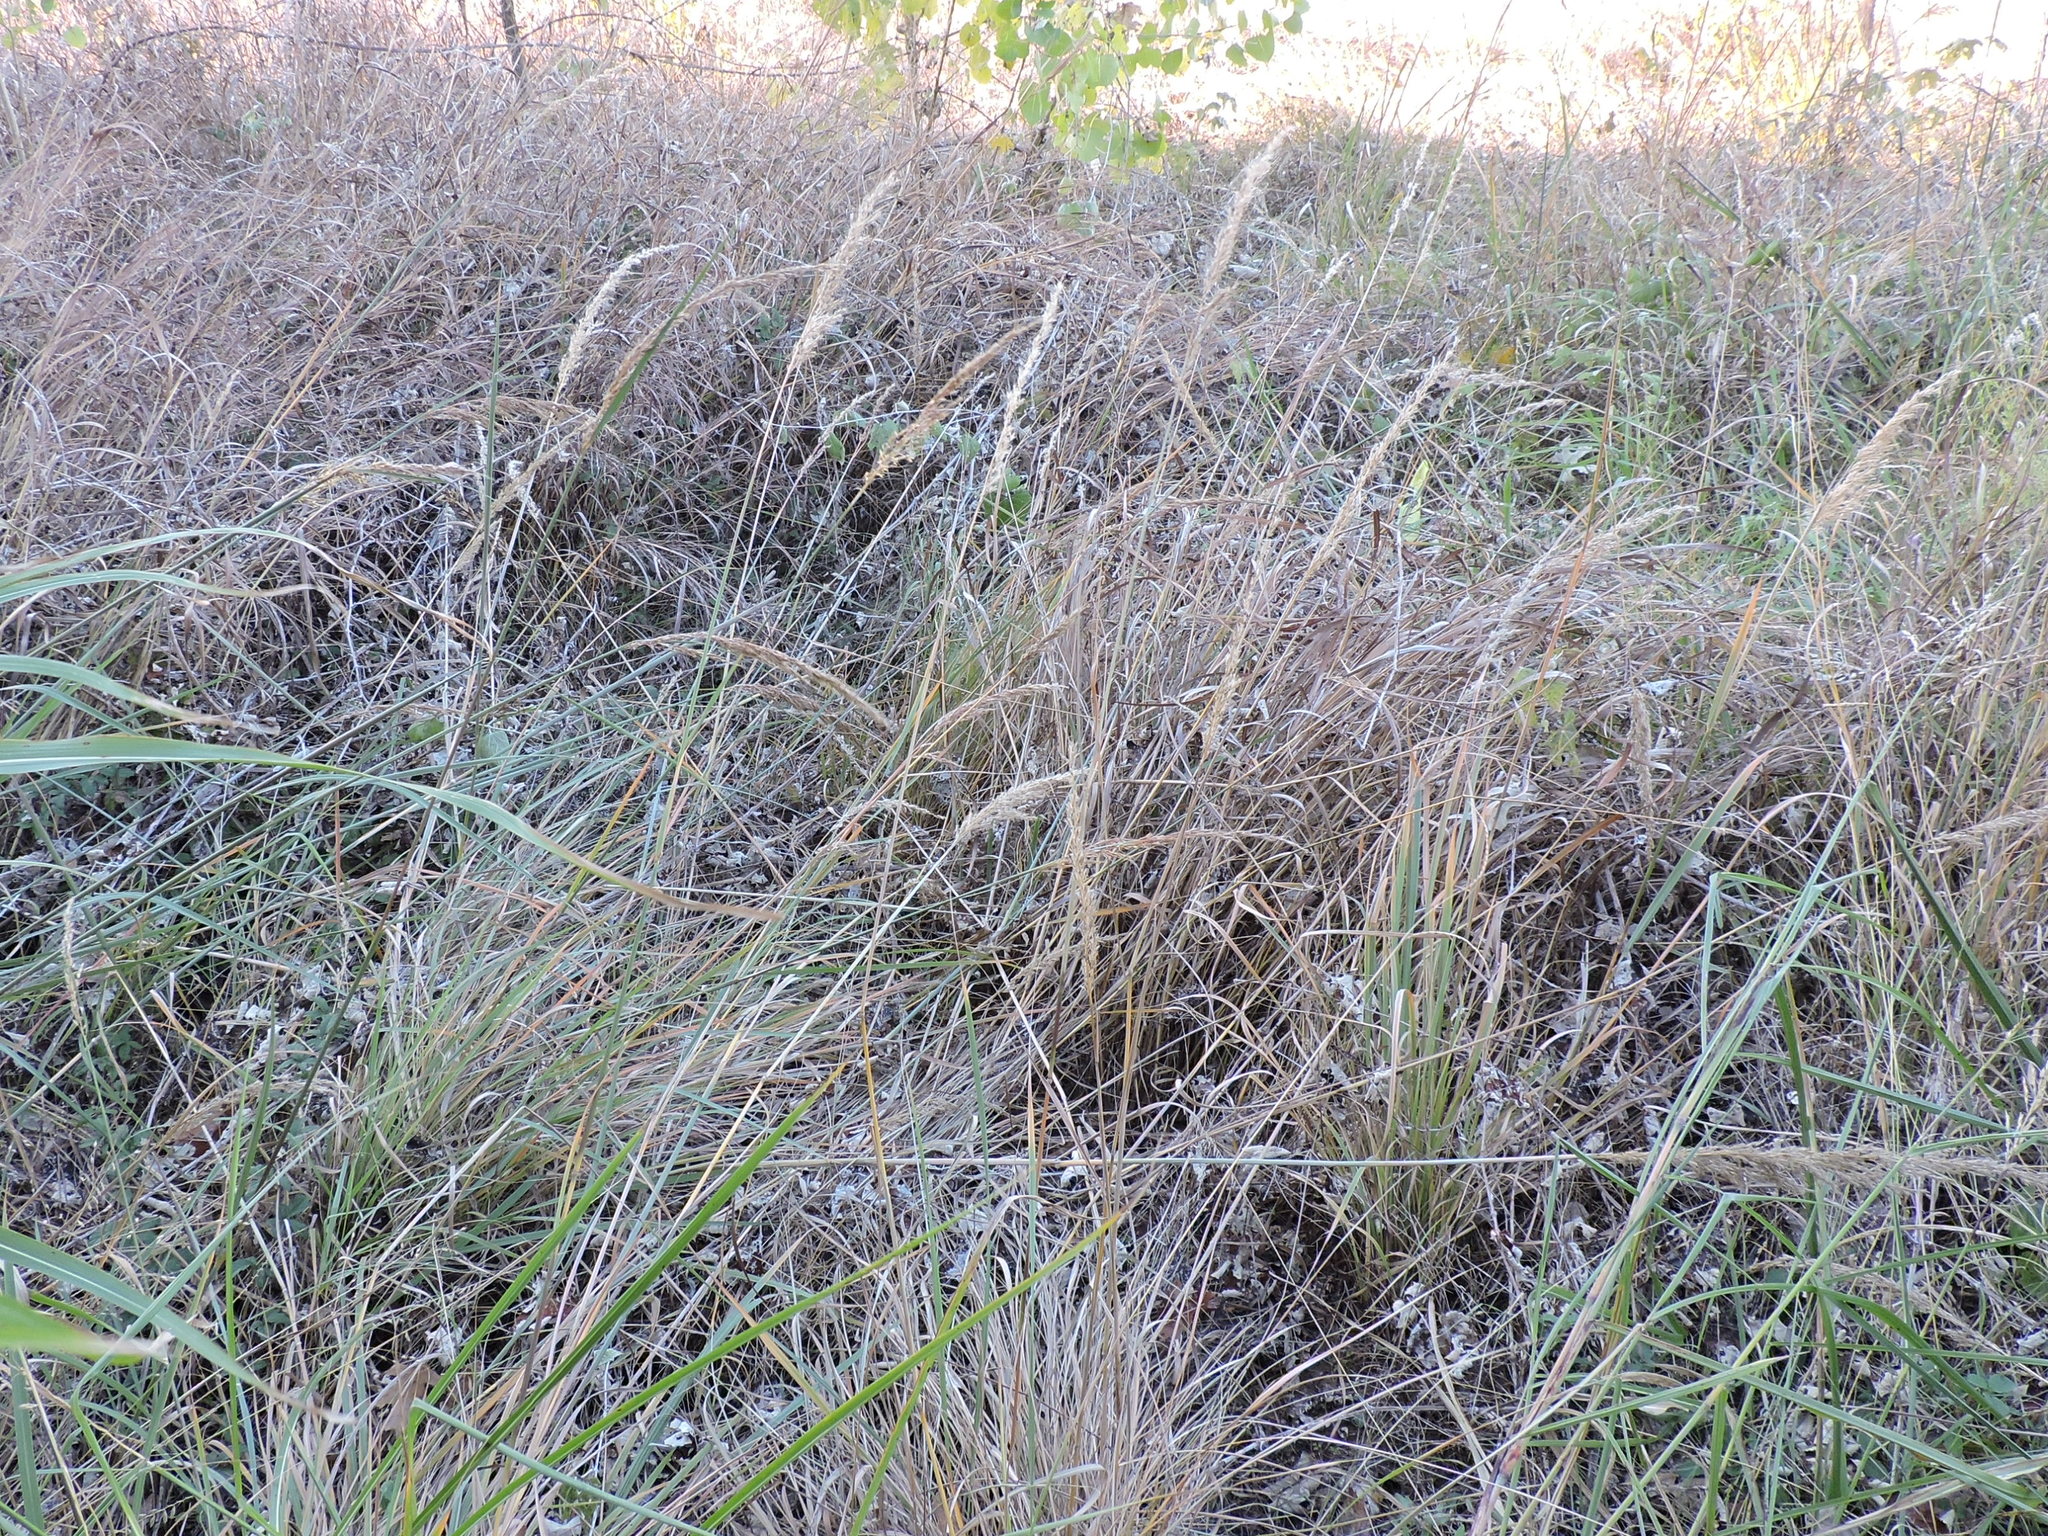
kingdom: Plantae
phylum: Tracheophyta
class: Liliopsida
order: Poales
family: Poaceae
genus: Sorghastrum
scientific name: Sorghastrum nutans
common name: Indian grass
